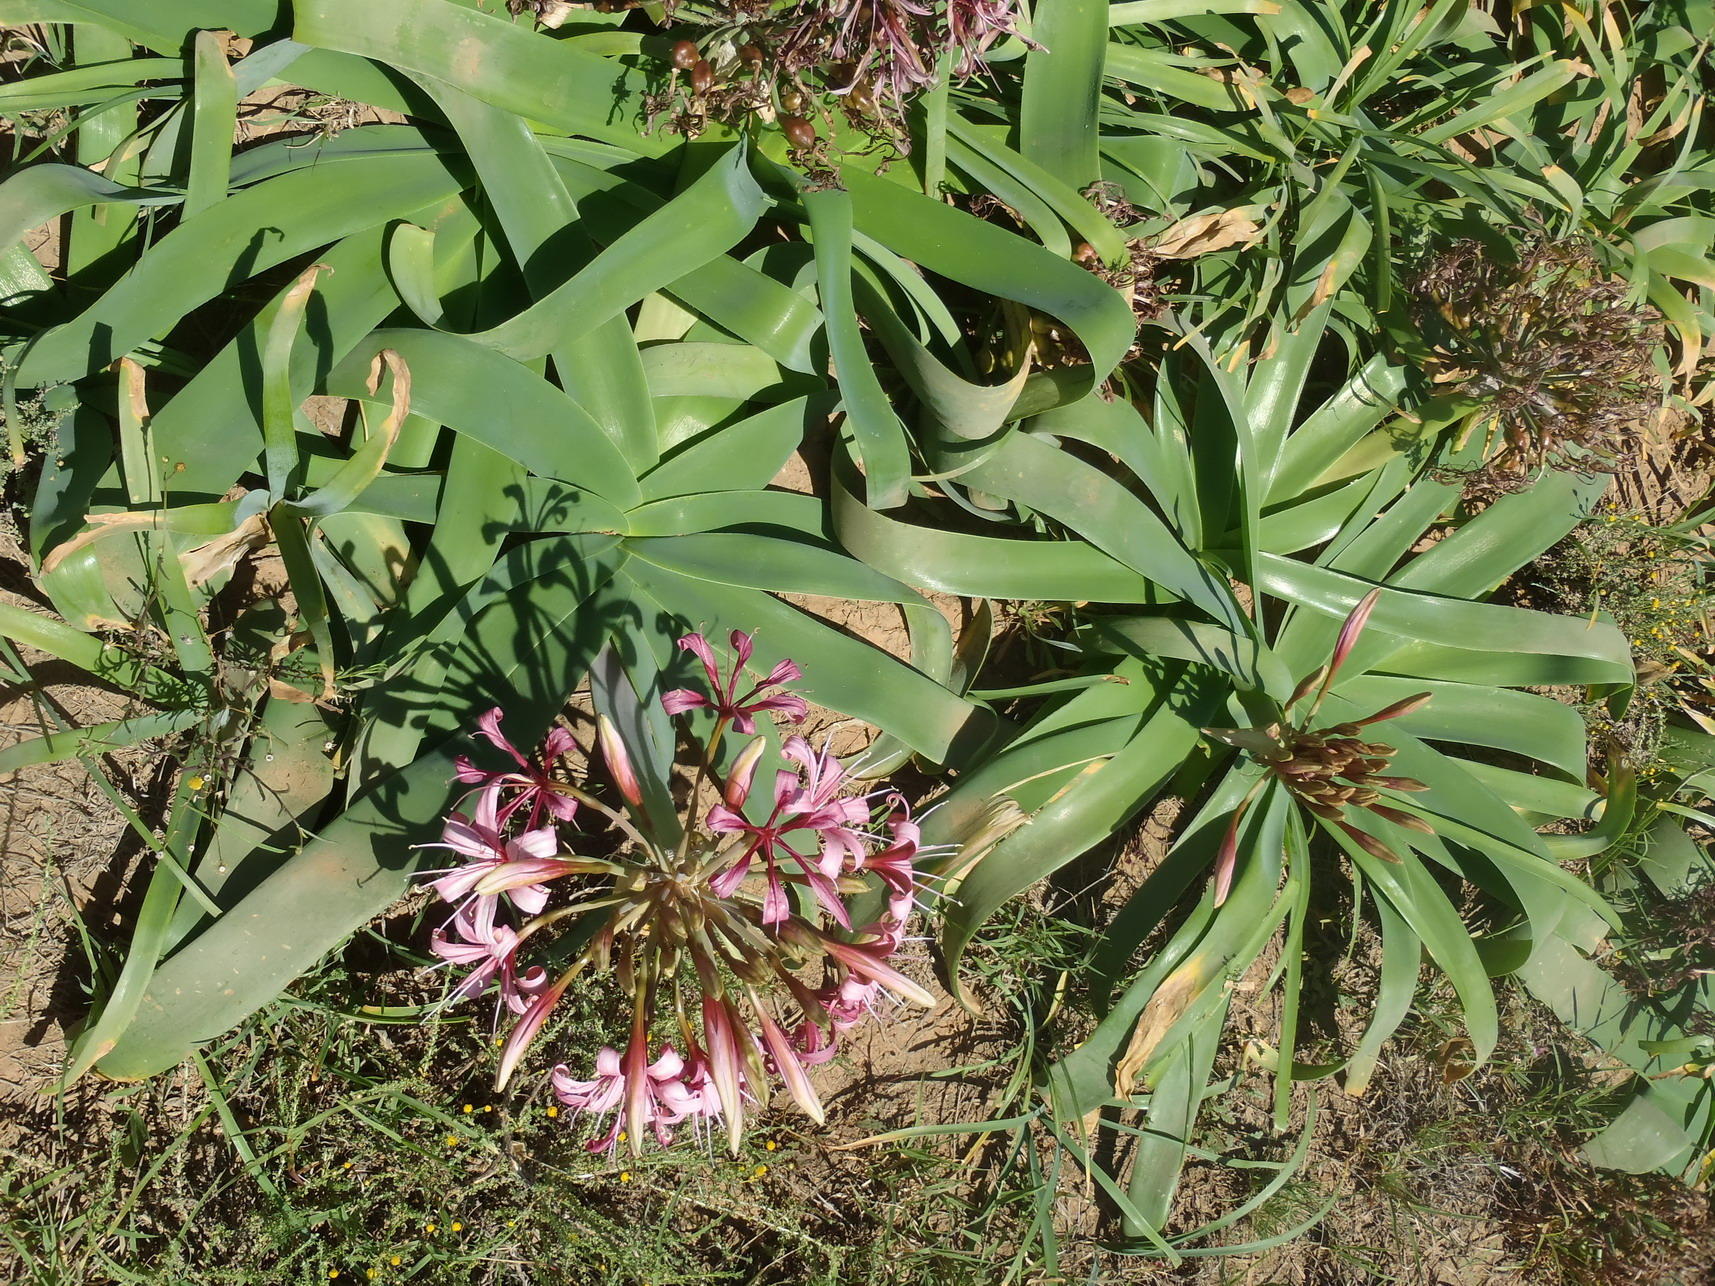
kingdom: Plantae
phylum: Tracheophyta
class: Liliopsida
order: Asparagales
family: Amaryllidaceae
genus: Ammocharis
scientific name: Ammocharis coranica
